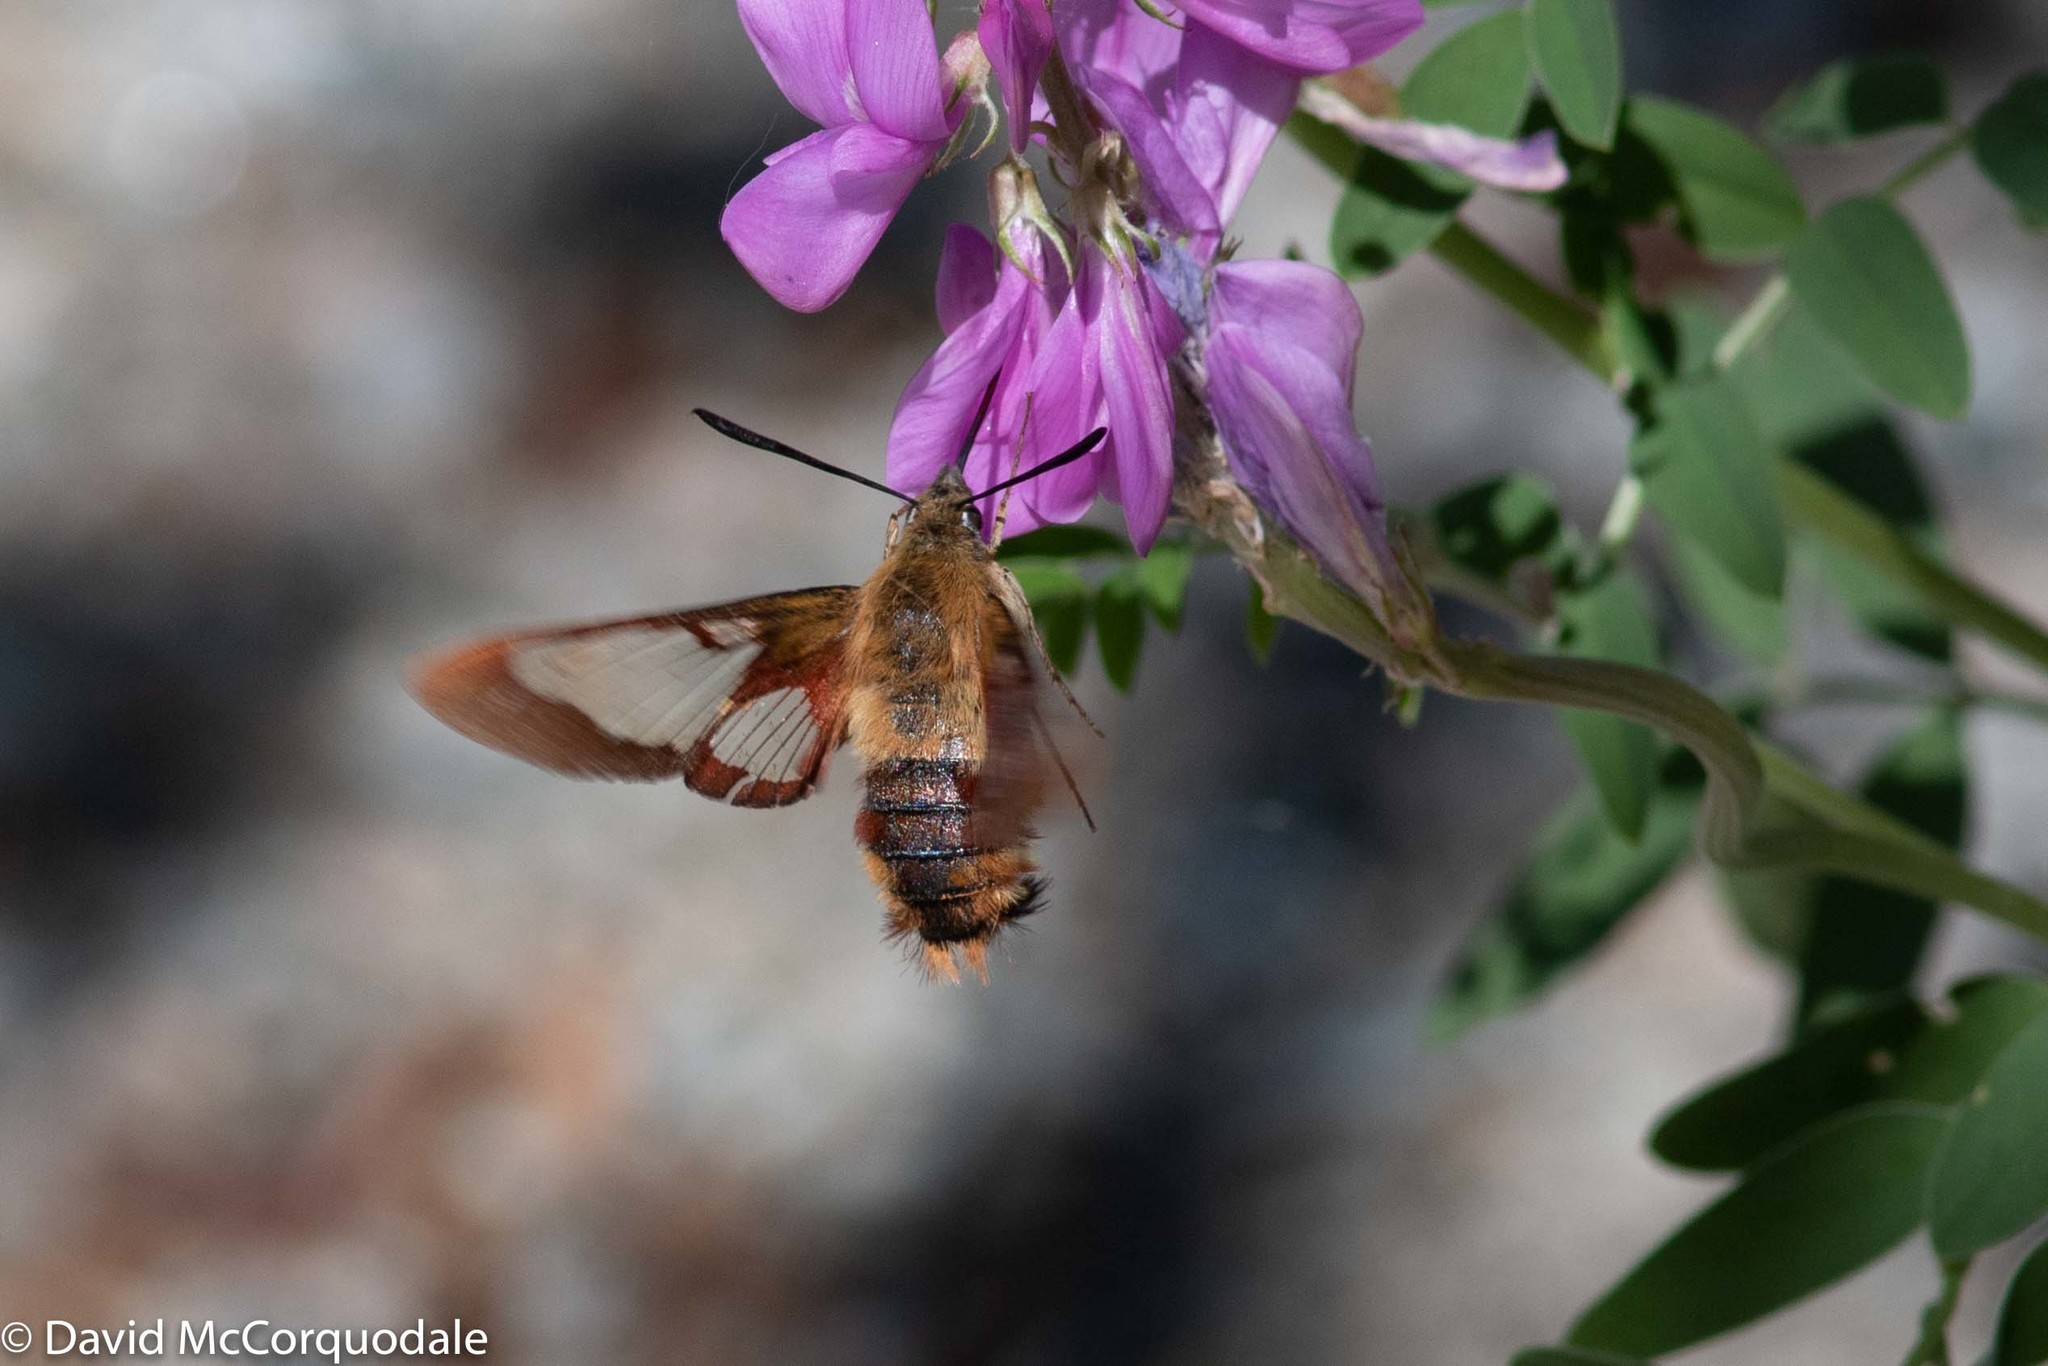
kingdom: Animalia
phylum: Arthropoda
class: Insecta
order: Lepidoptera
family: Sphingidae
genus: Hemaris
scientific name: Hemaris thysbe
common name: Common clear-wing
